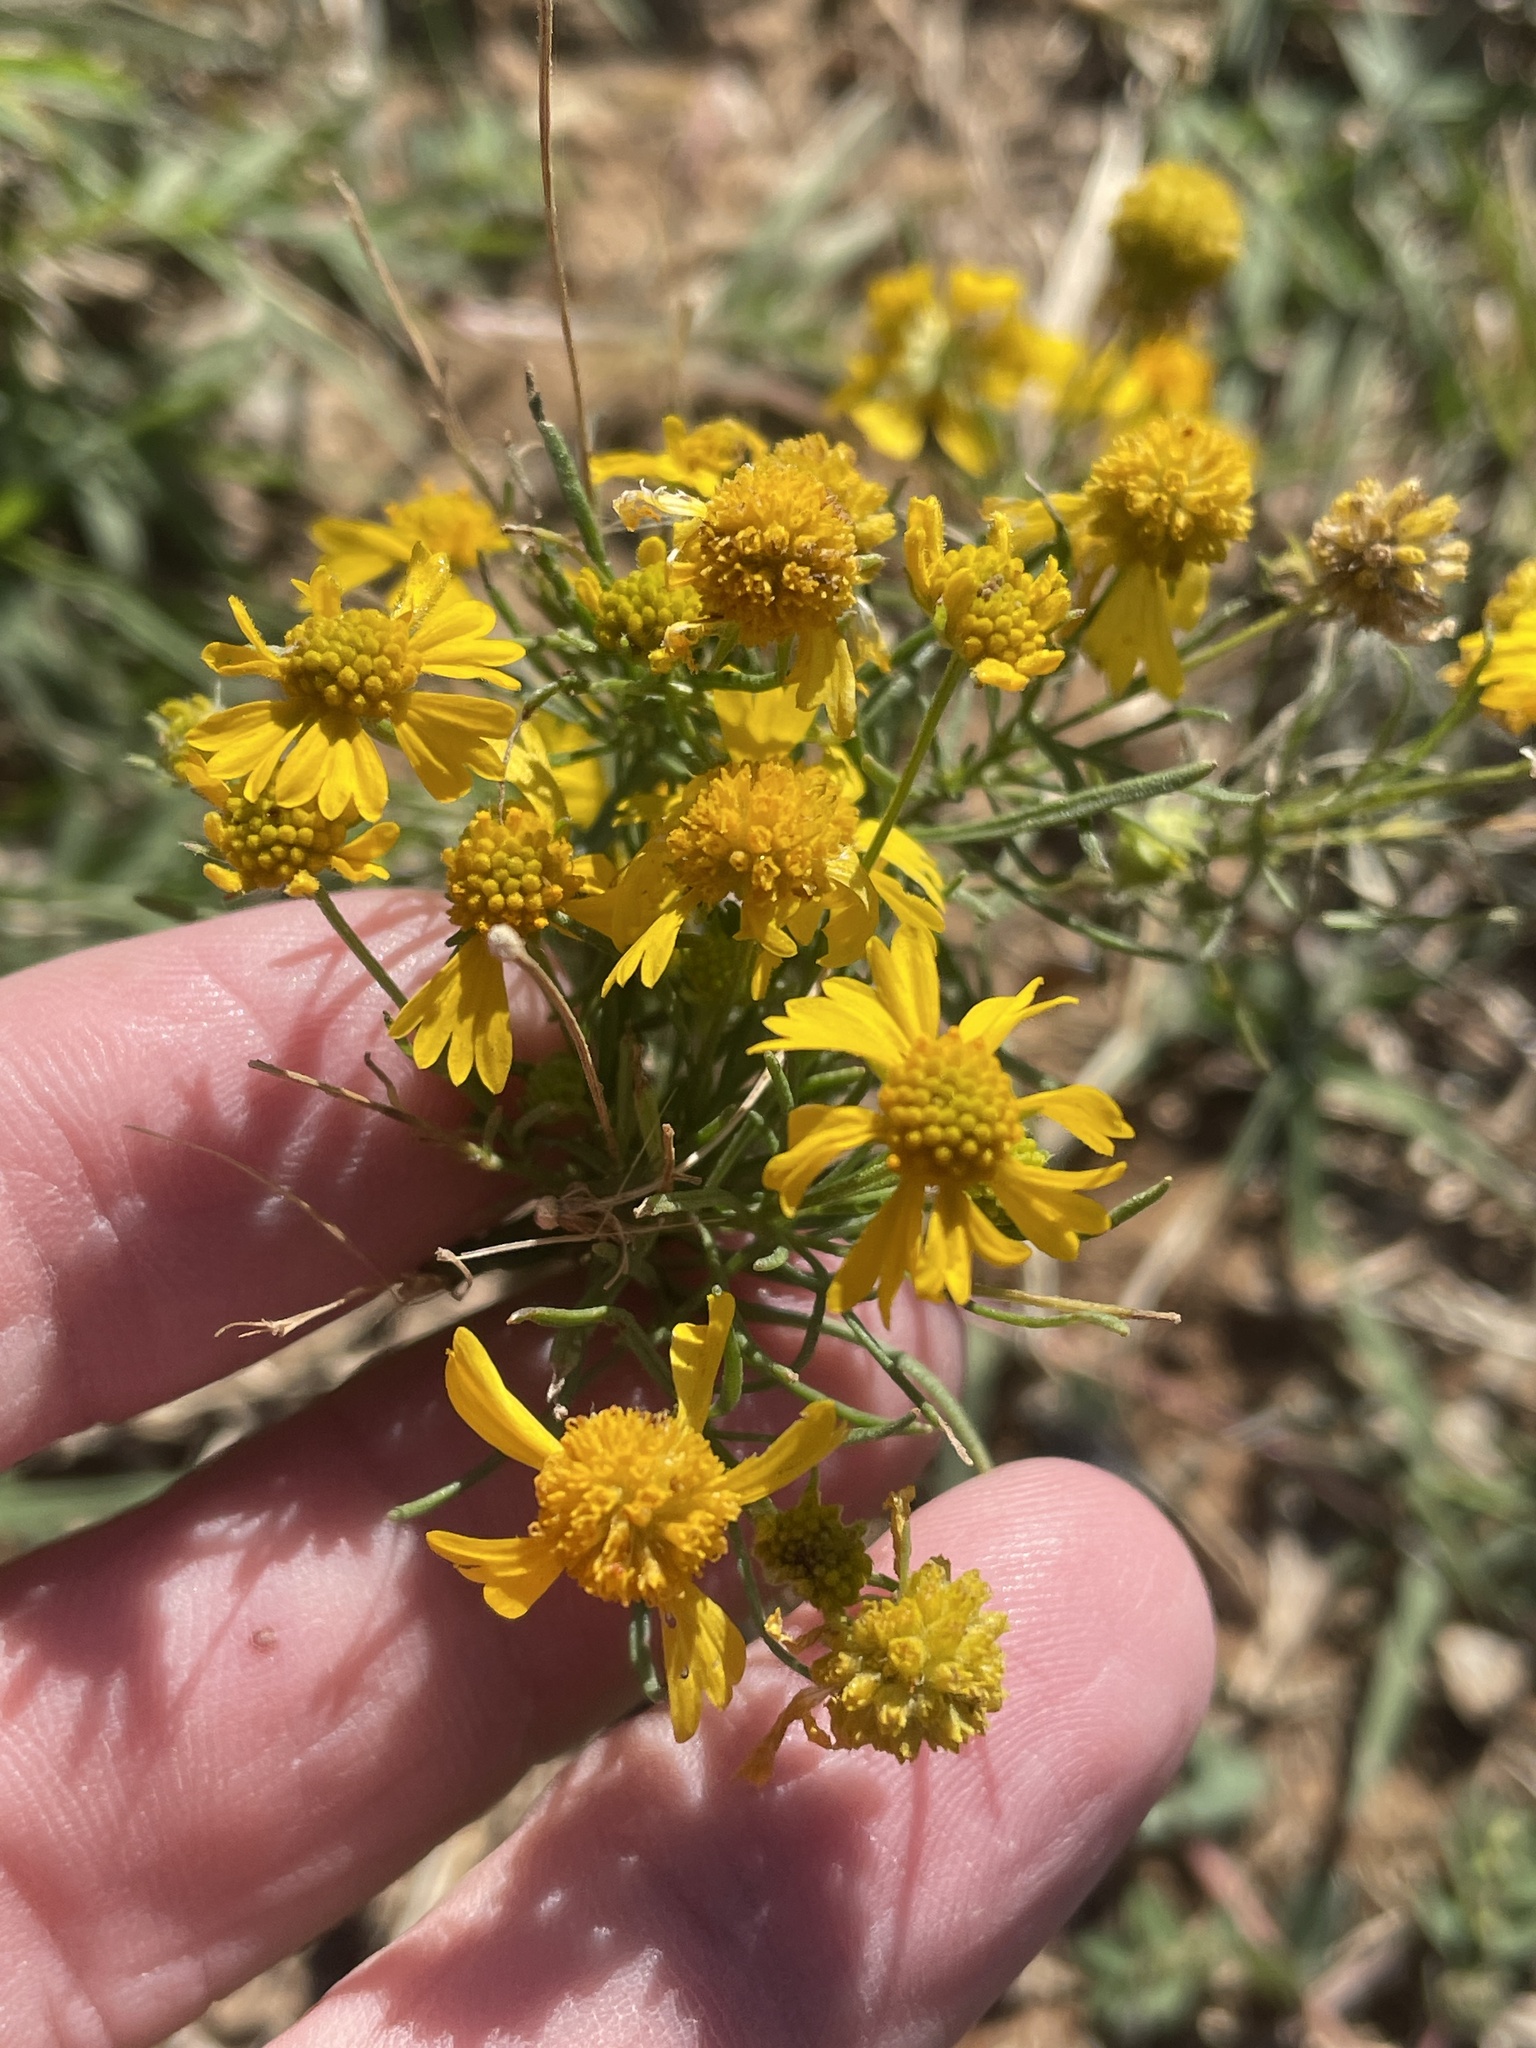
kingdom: Plantae
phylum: Tracheophyta
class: Magnoliopsida
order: Asterales
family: Asteraceae
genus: Helenium
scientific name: Helenium amarum
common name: Bitter sneezeweed
